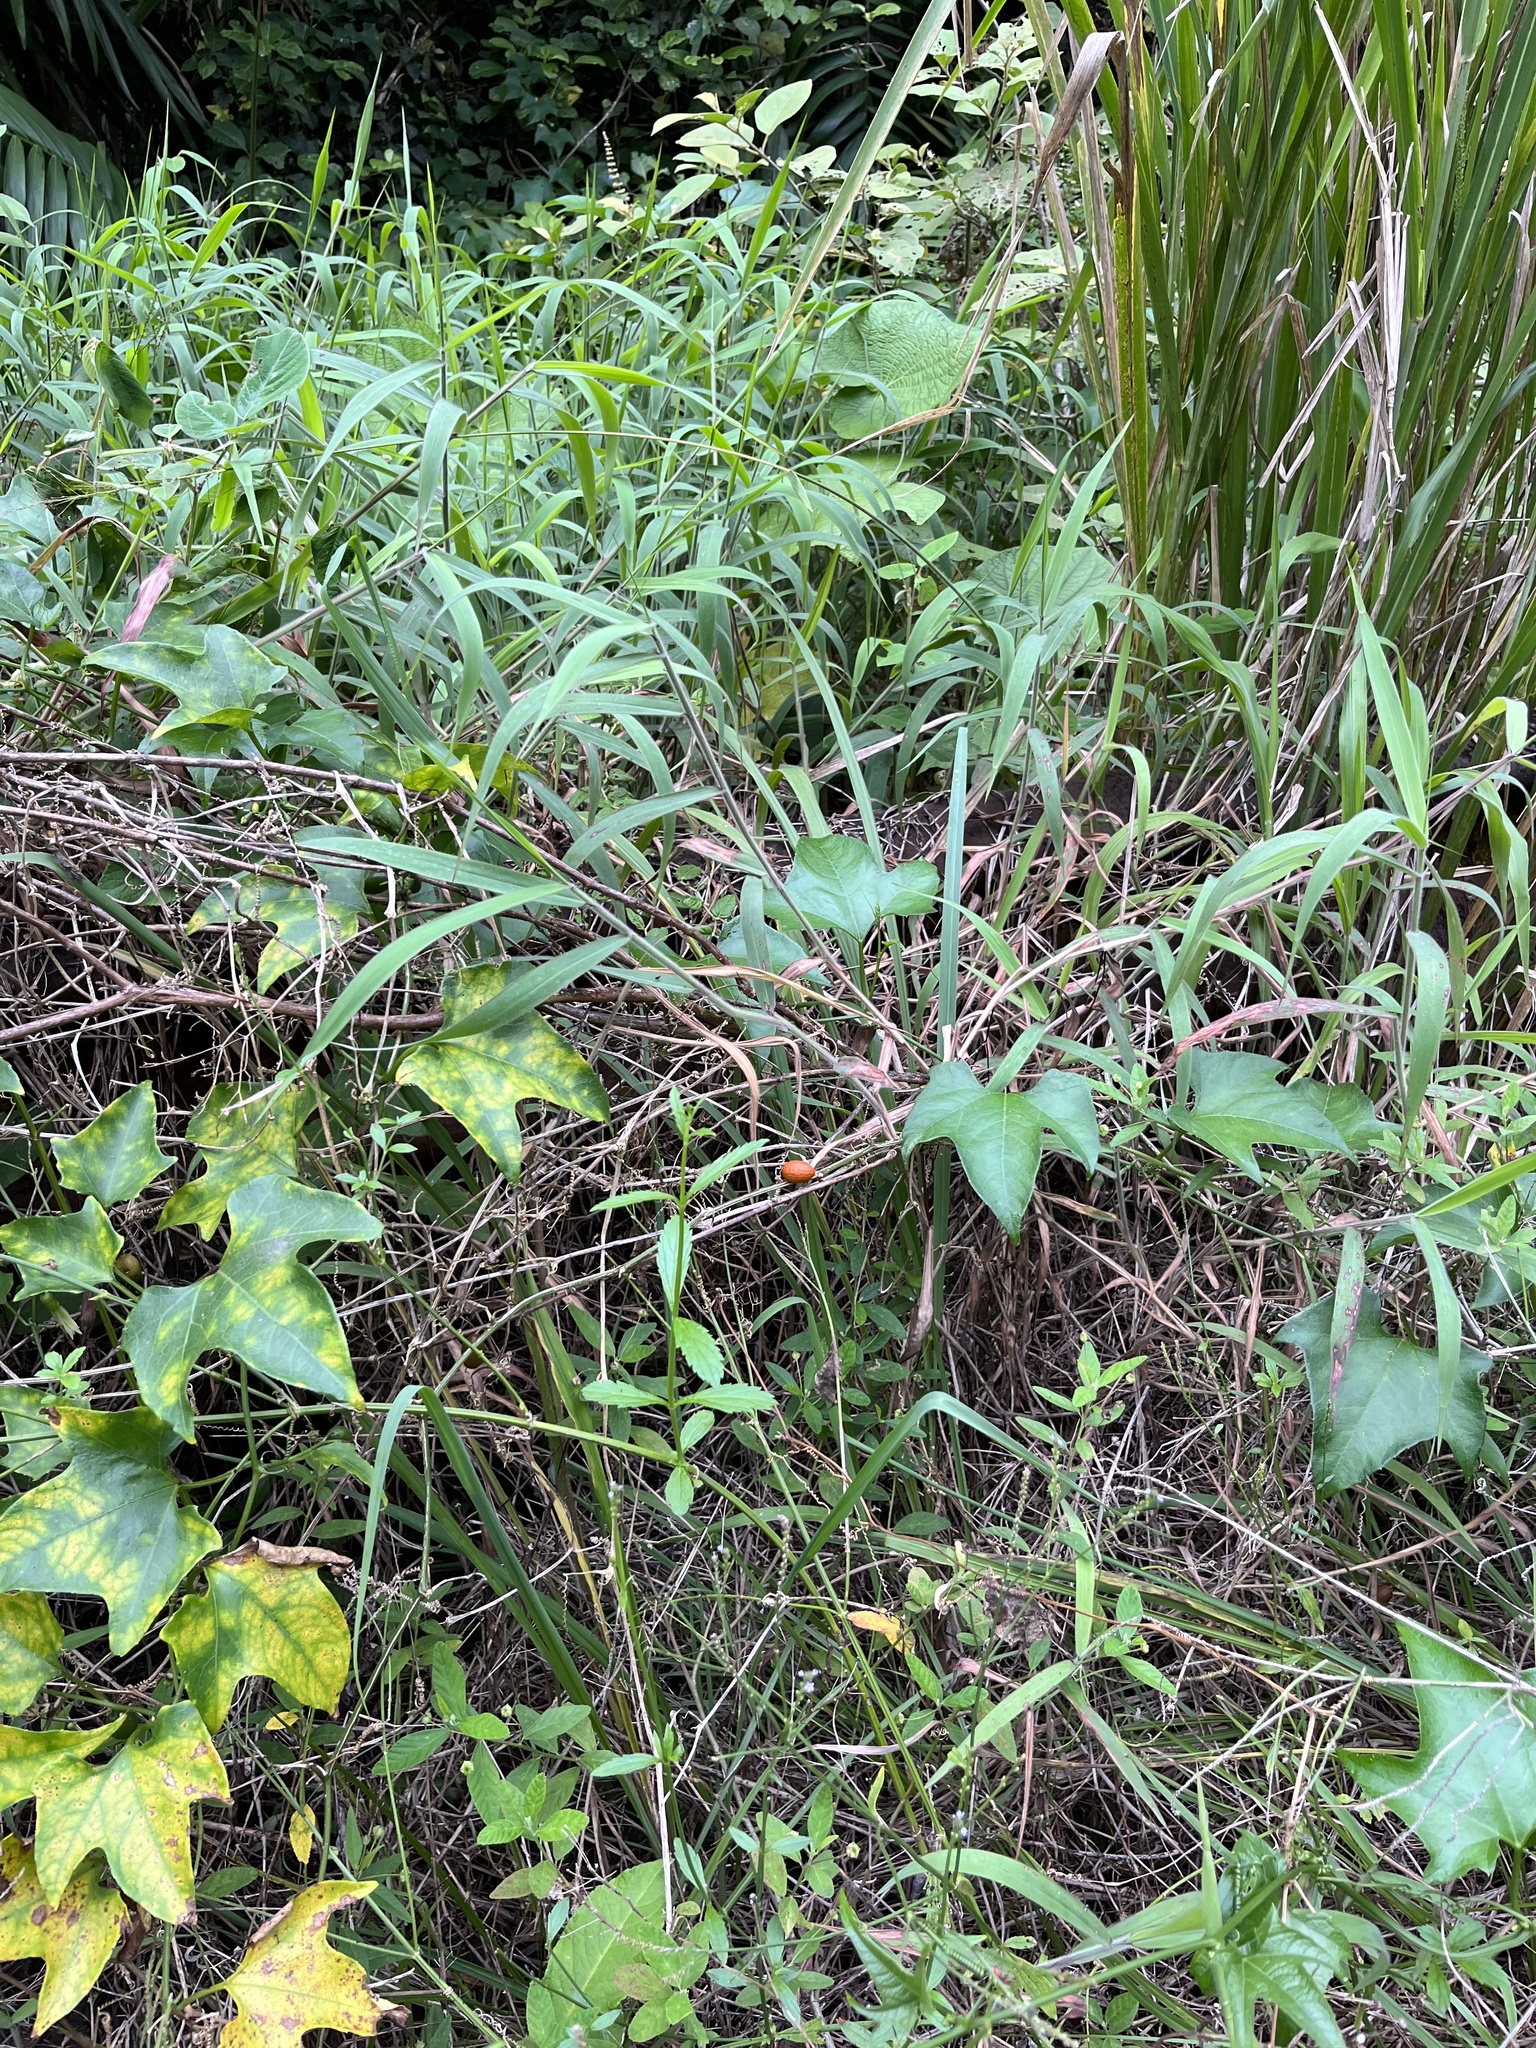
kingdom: Plantae
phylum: Tracheophyta
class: Magnoliopsida
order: Cucurbitales
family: Cucurbitaceae
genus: Psiguria
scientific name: Psiguria pedata
